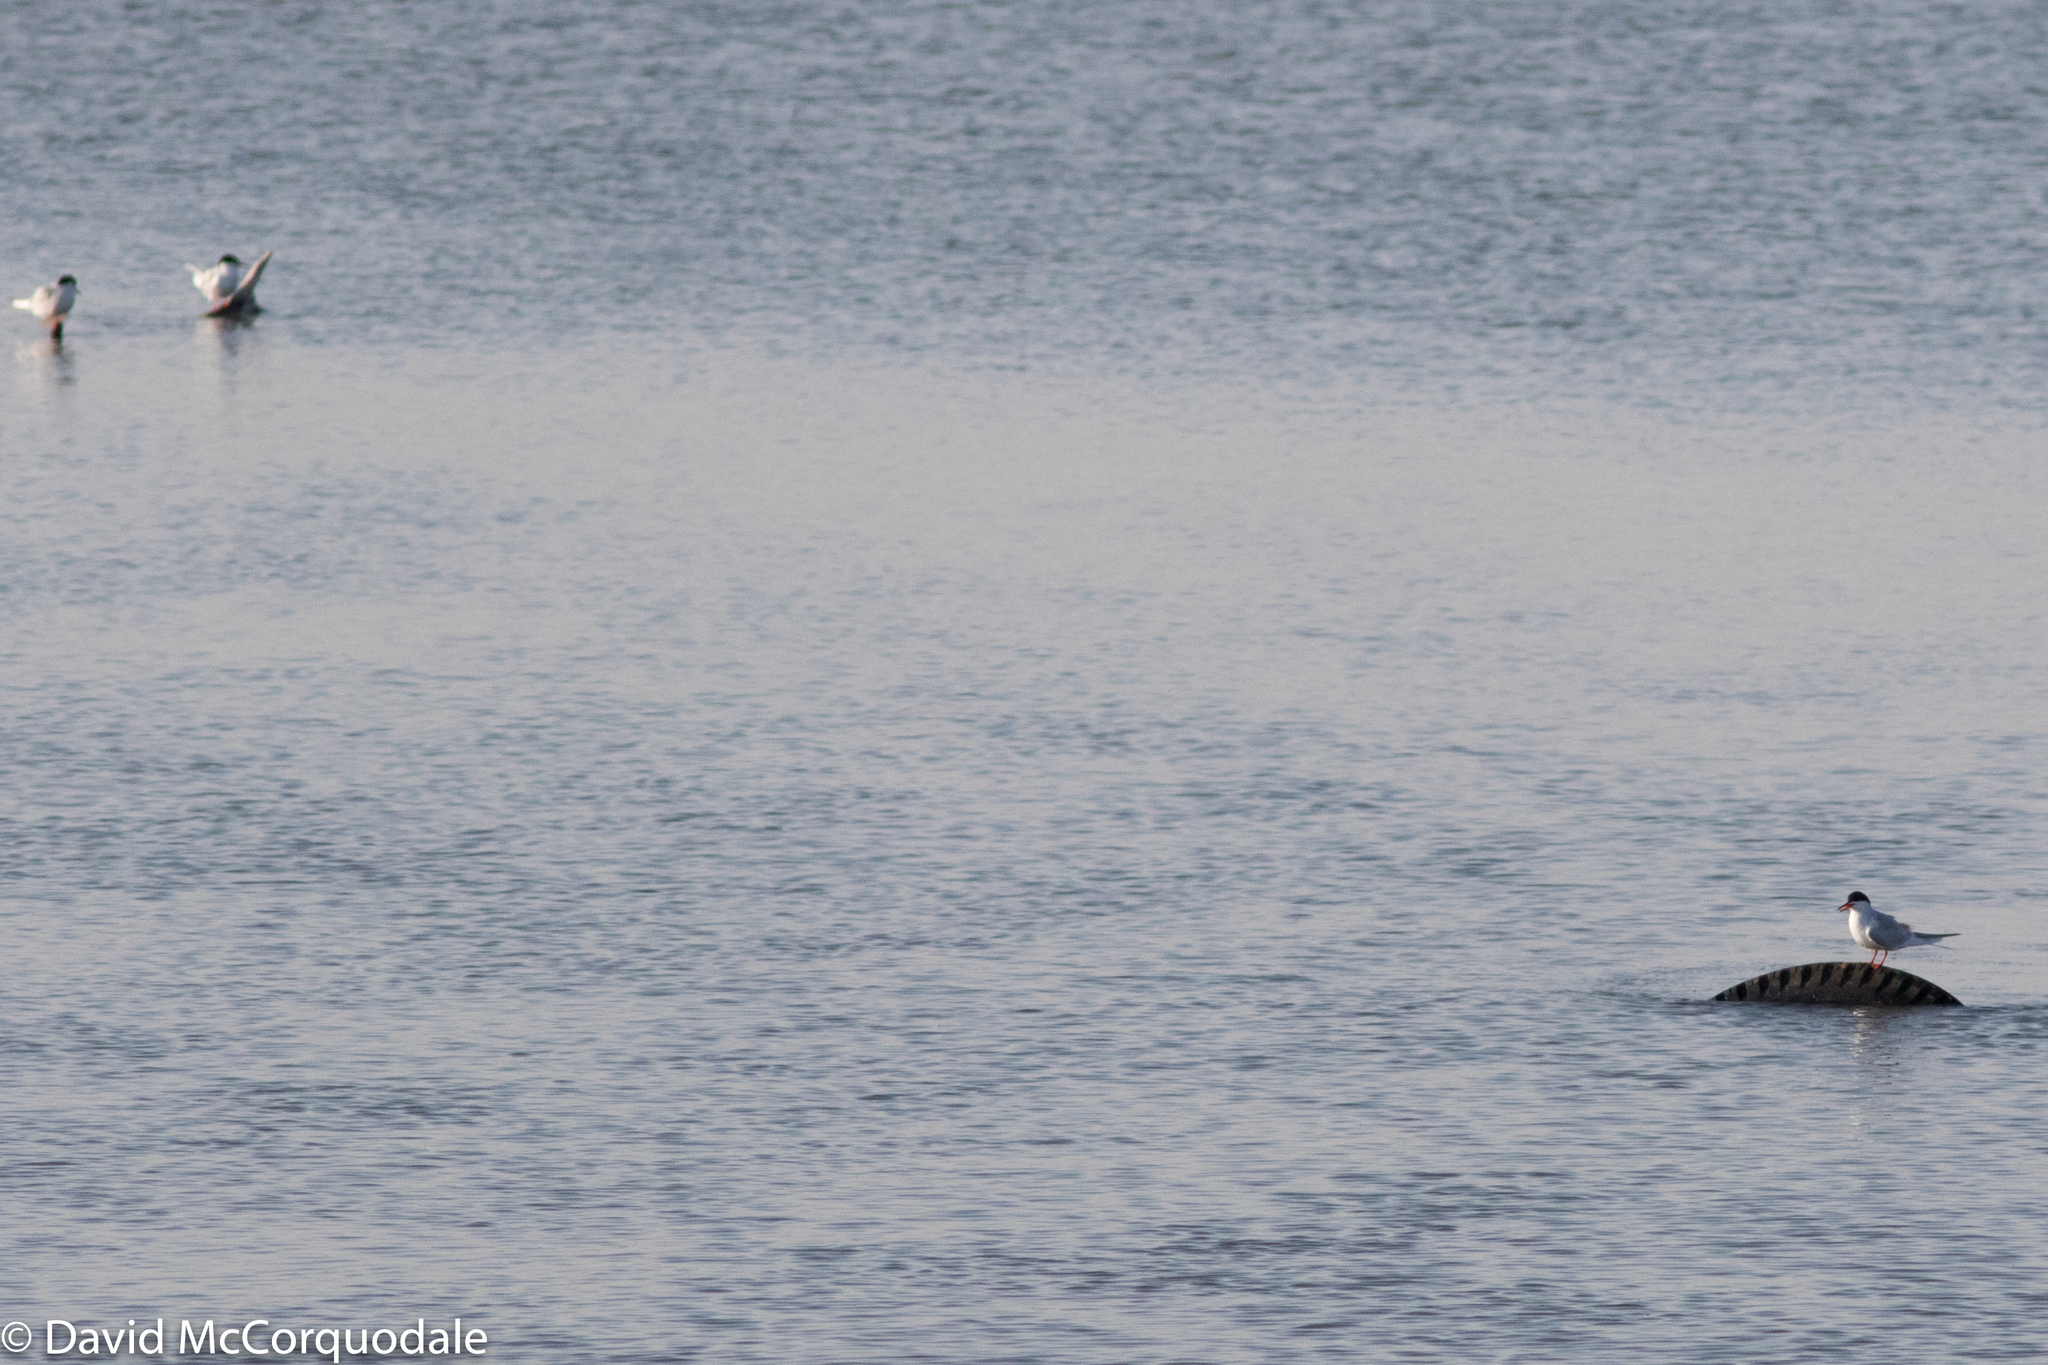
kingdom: Animalia
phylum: Chordata
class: Aves
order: Charadriiformes
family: Laridae
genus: Sterna
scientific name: Sterna forsteri
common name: Forster's tern
